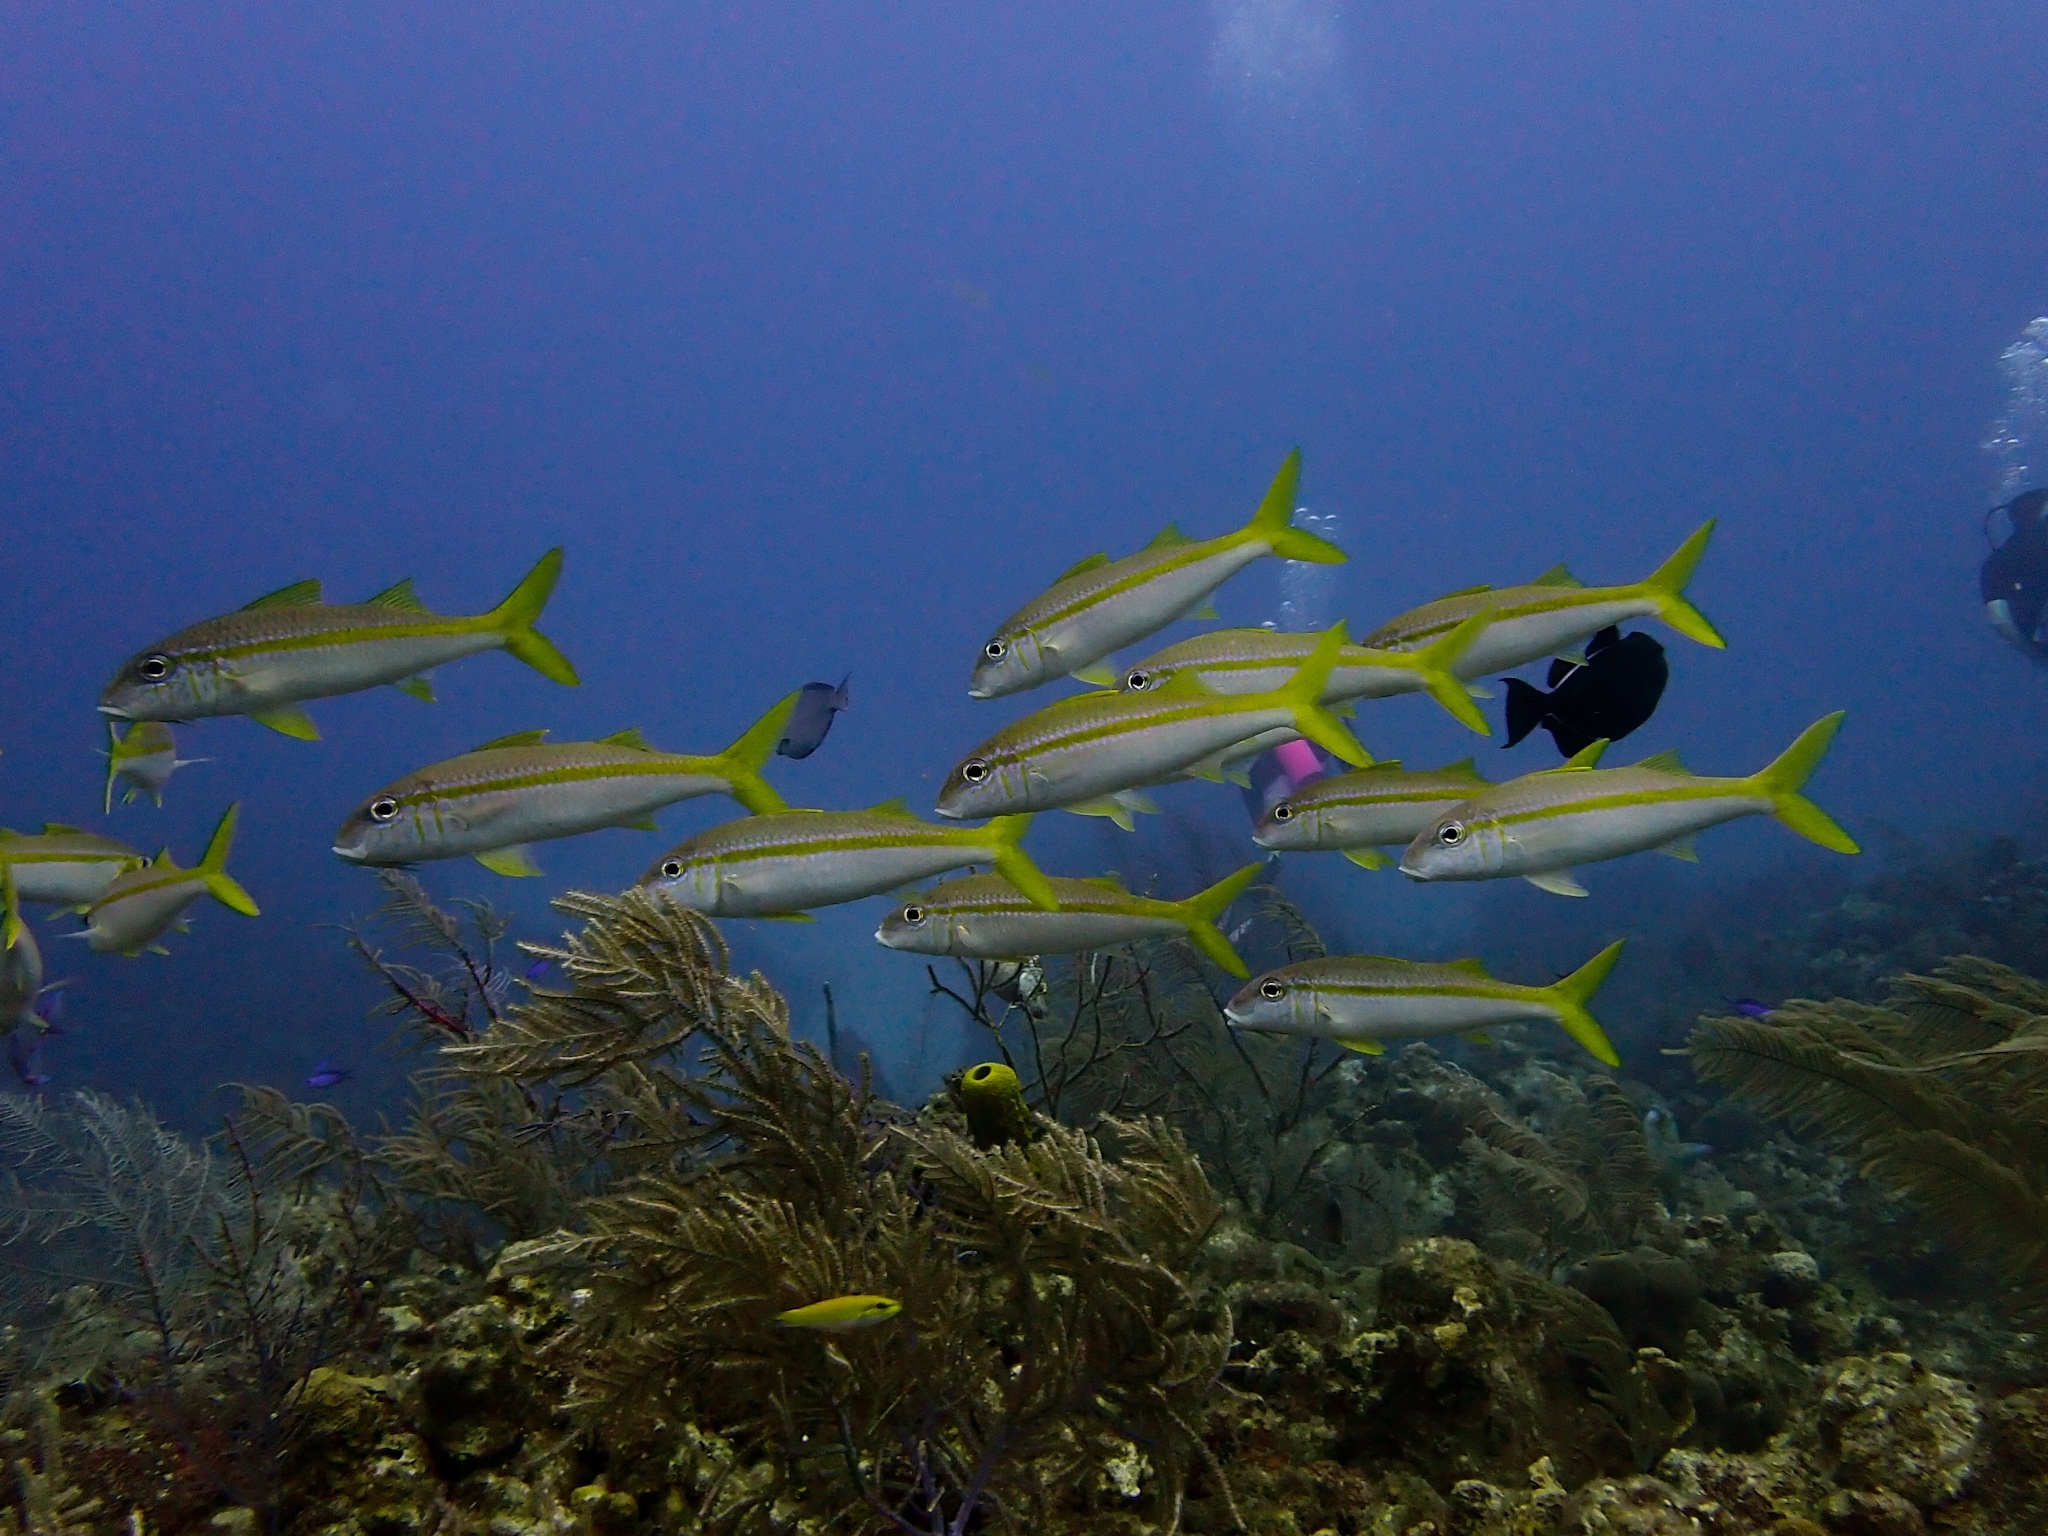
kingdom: Animalia
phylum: Chordata
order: Perciformes
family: Mullidae
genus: Mulloidichthys
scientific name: Mulloidichthys martinicus
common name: Yellow goatfish
